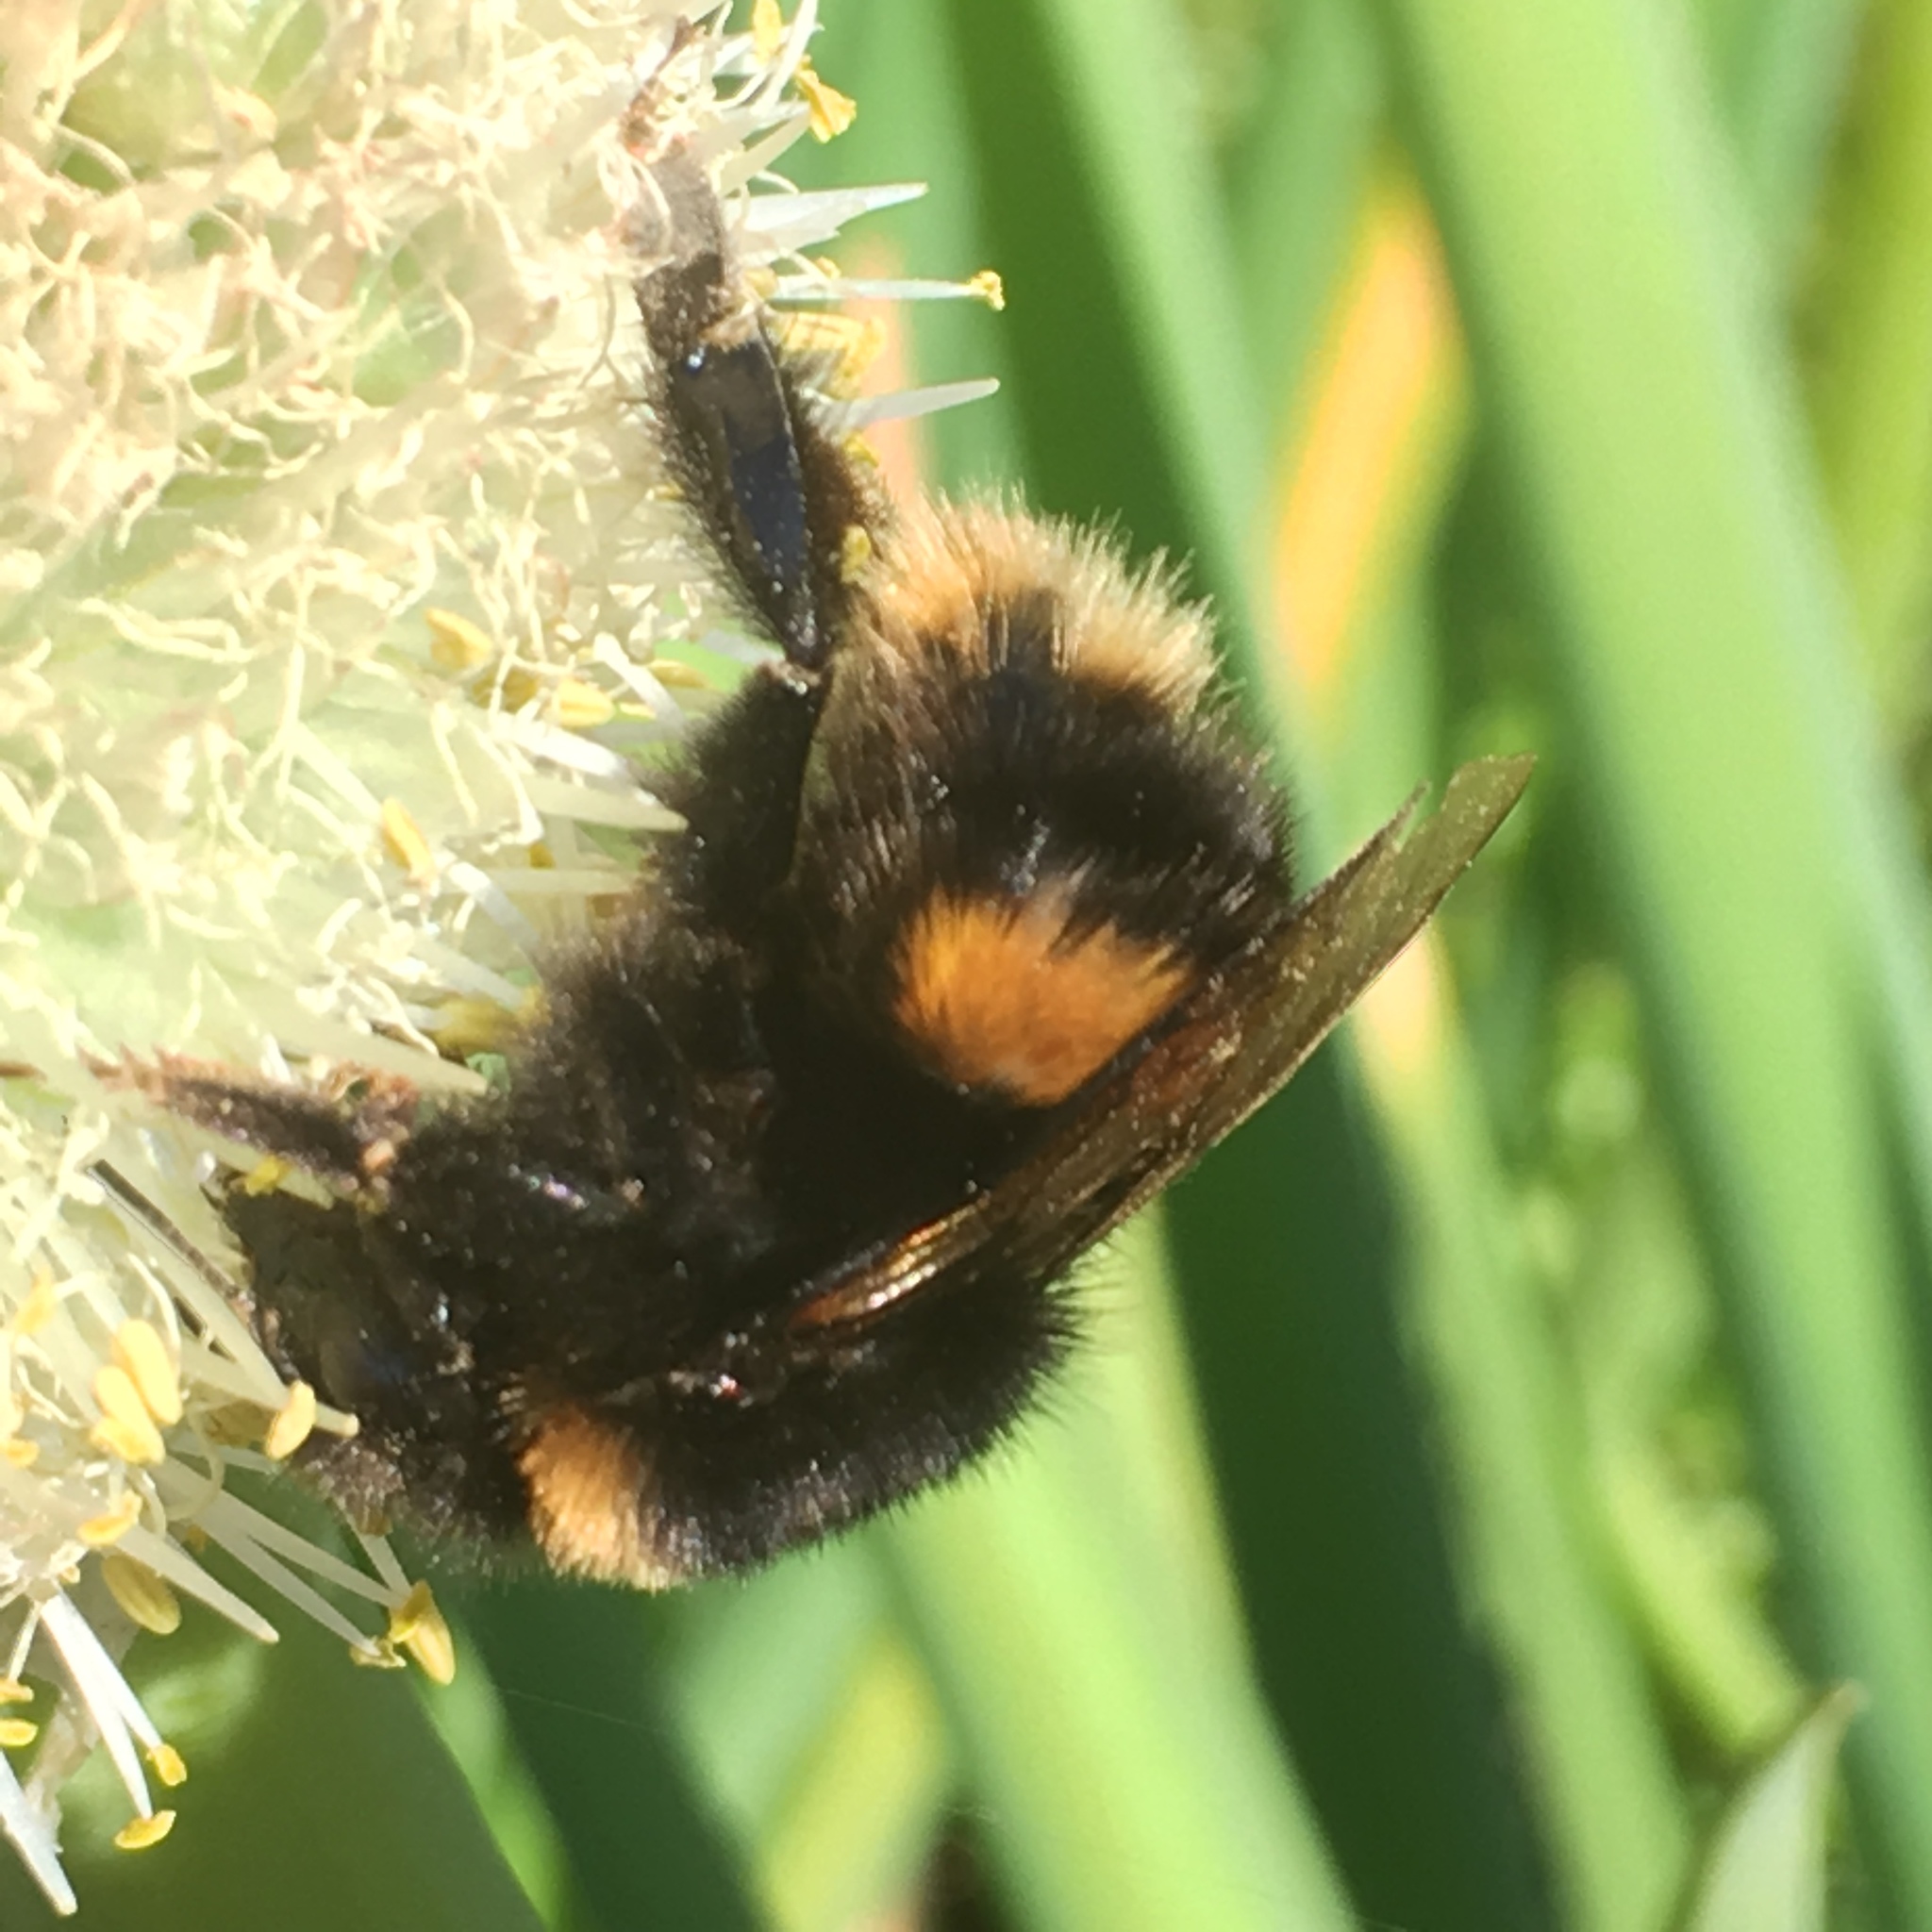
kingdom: Animalia
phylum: Arthropoda
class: Insecta
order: Hymenoptera
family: Apidae
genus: Bombus
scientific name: Bombus terrestris
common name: Buff-tailed bumblebee
